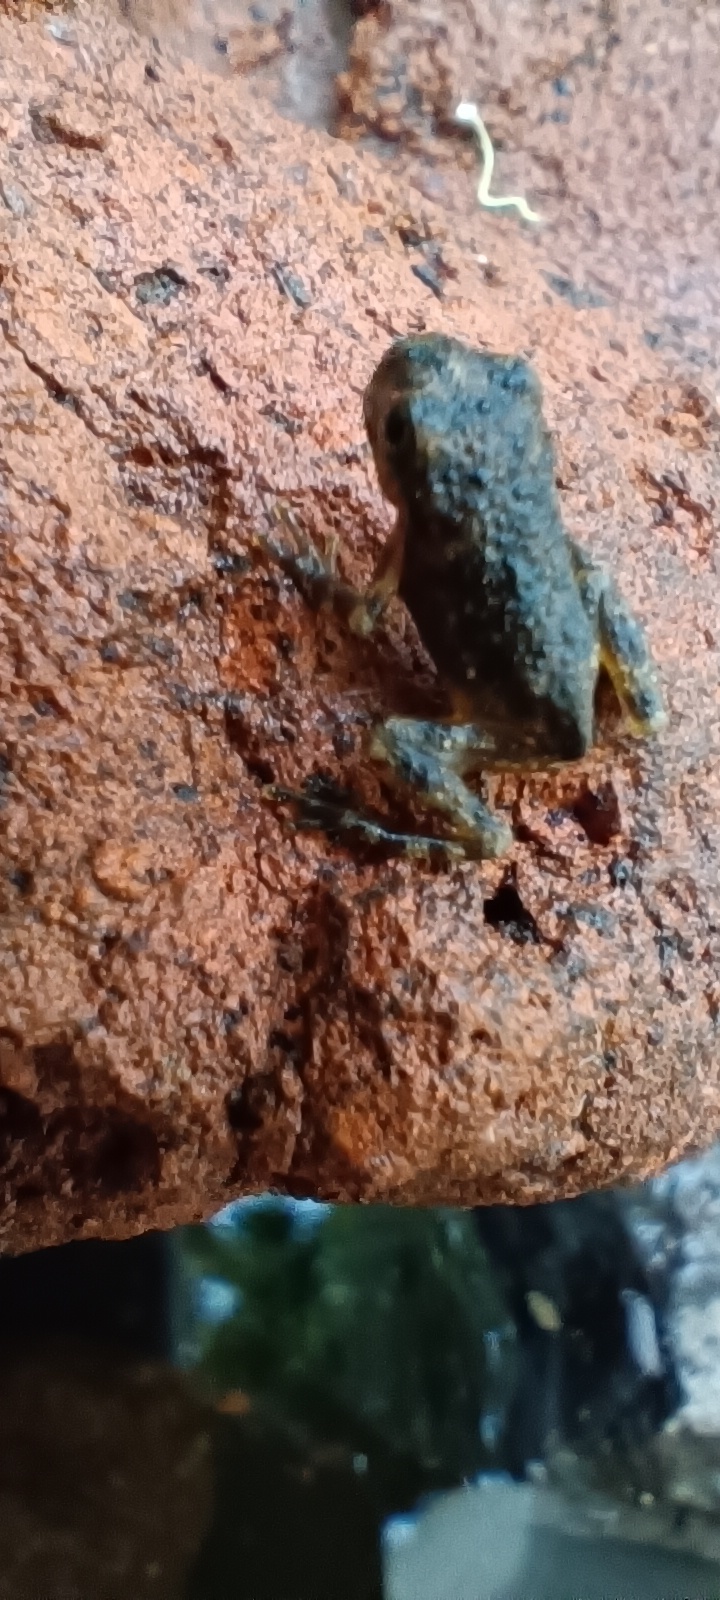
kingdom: Animalia
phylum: Chordata
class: Amphibia
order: Anura
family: Hylidae
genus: Dryophytes
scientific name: Dryophytes arenicolor
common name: Canyon treefrog
